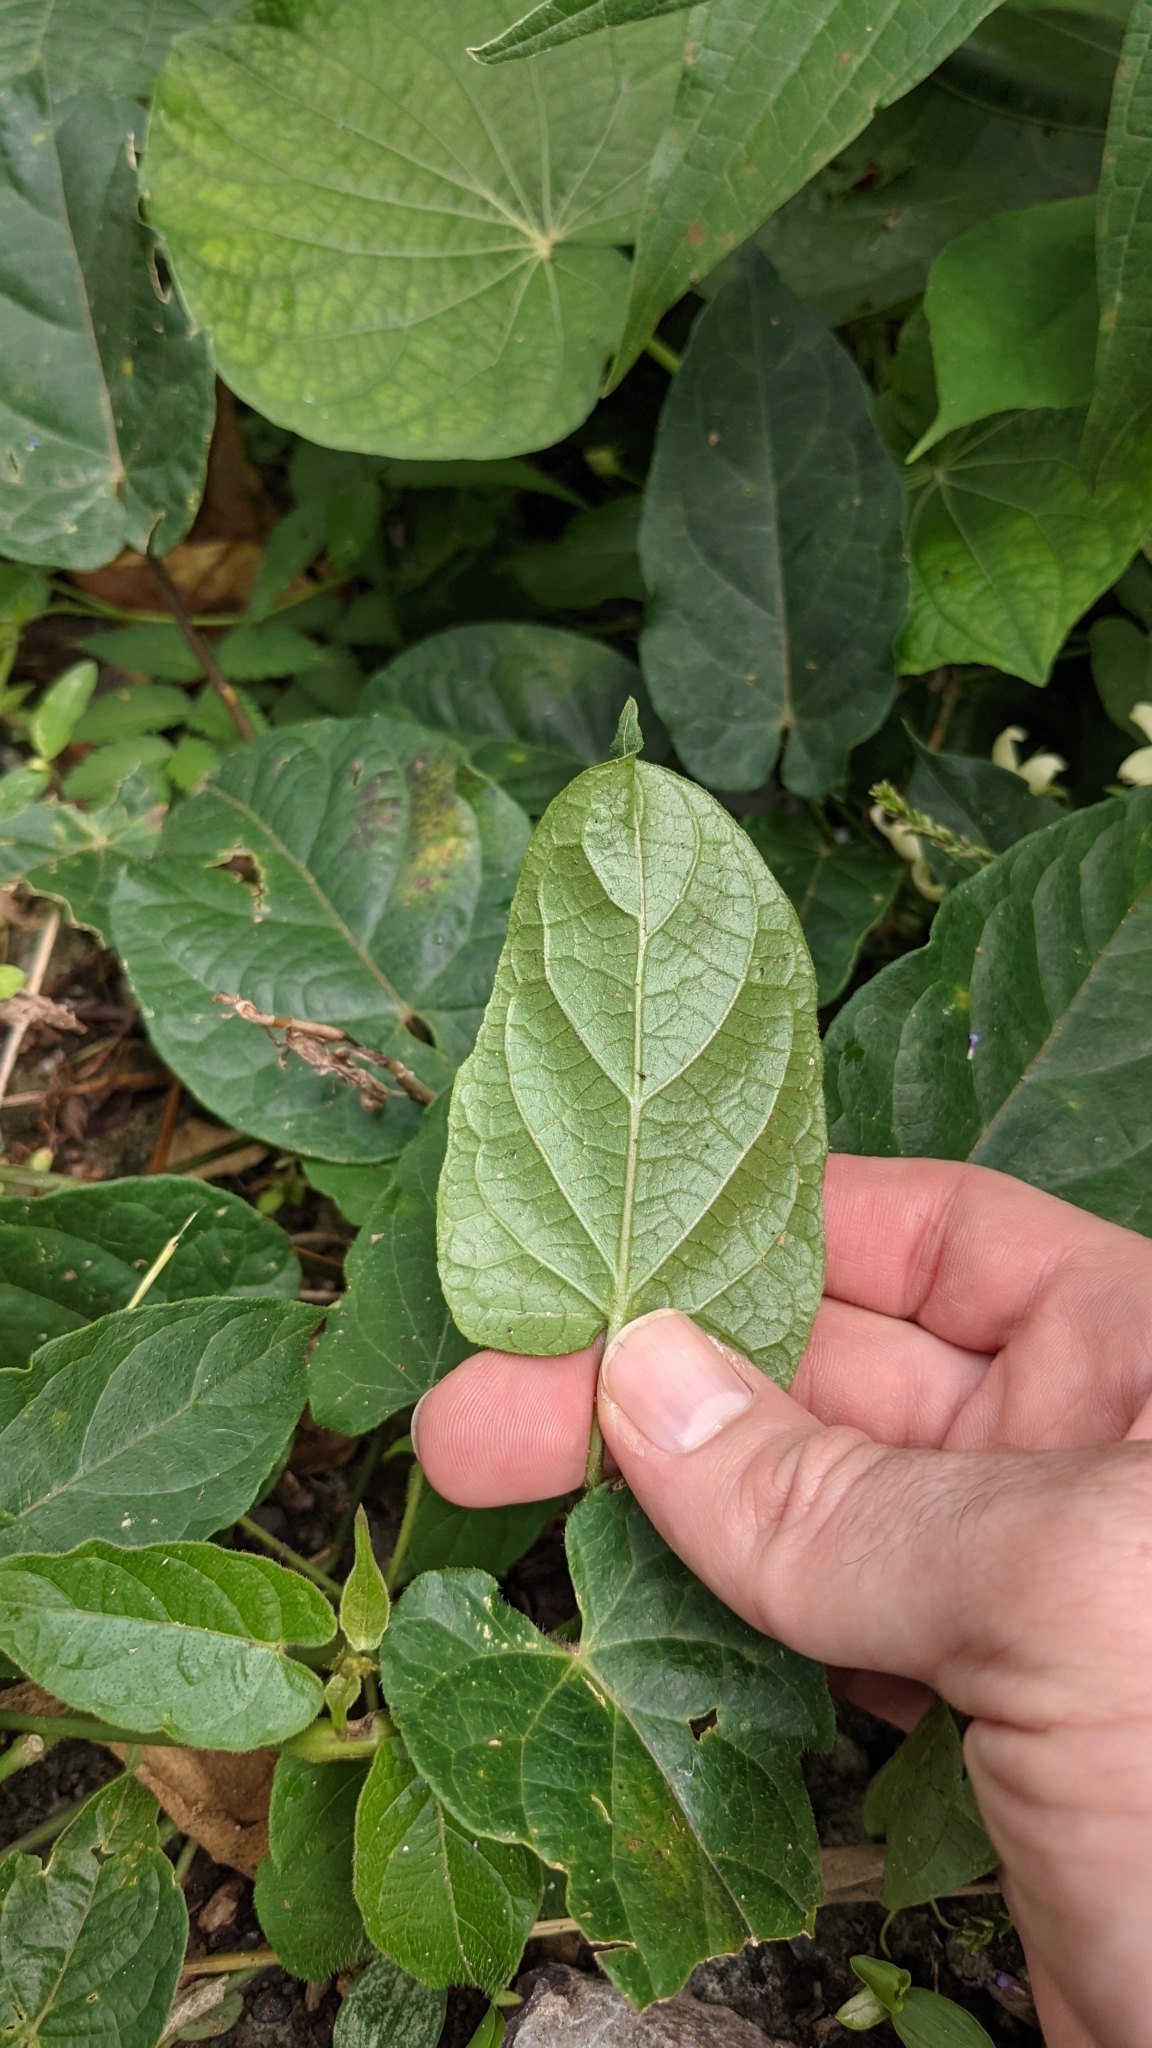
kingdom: Plantae
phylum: Tracheophyta
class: Magnoliopsida
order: Gentianales
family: Apocynaceae
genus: Gonolobus
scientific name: Gonolobus edulis
